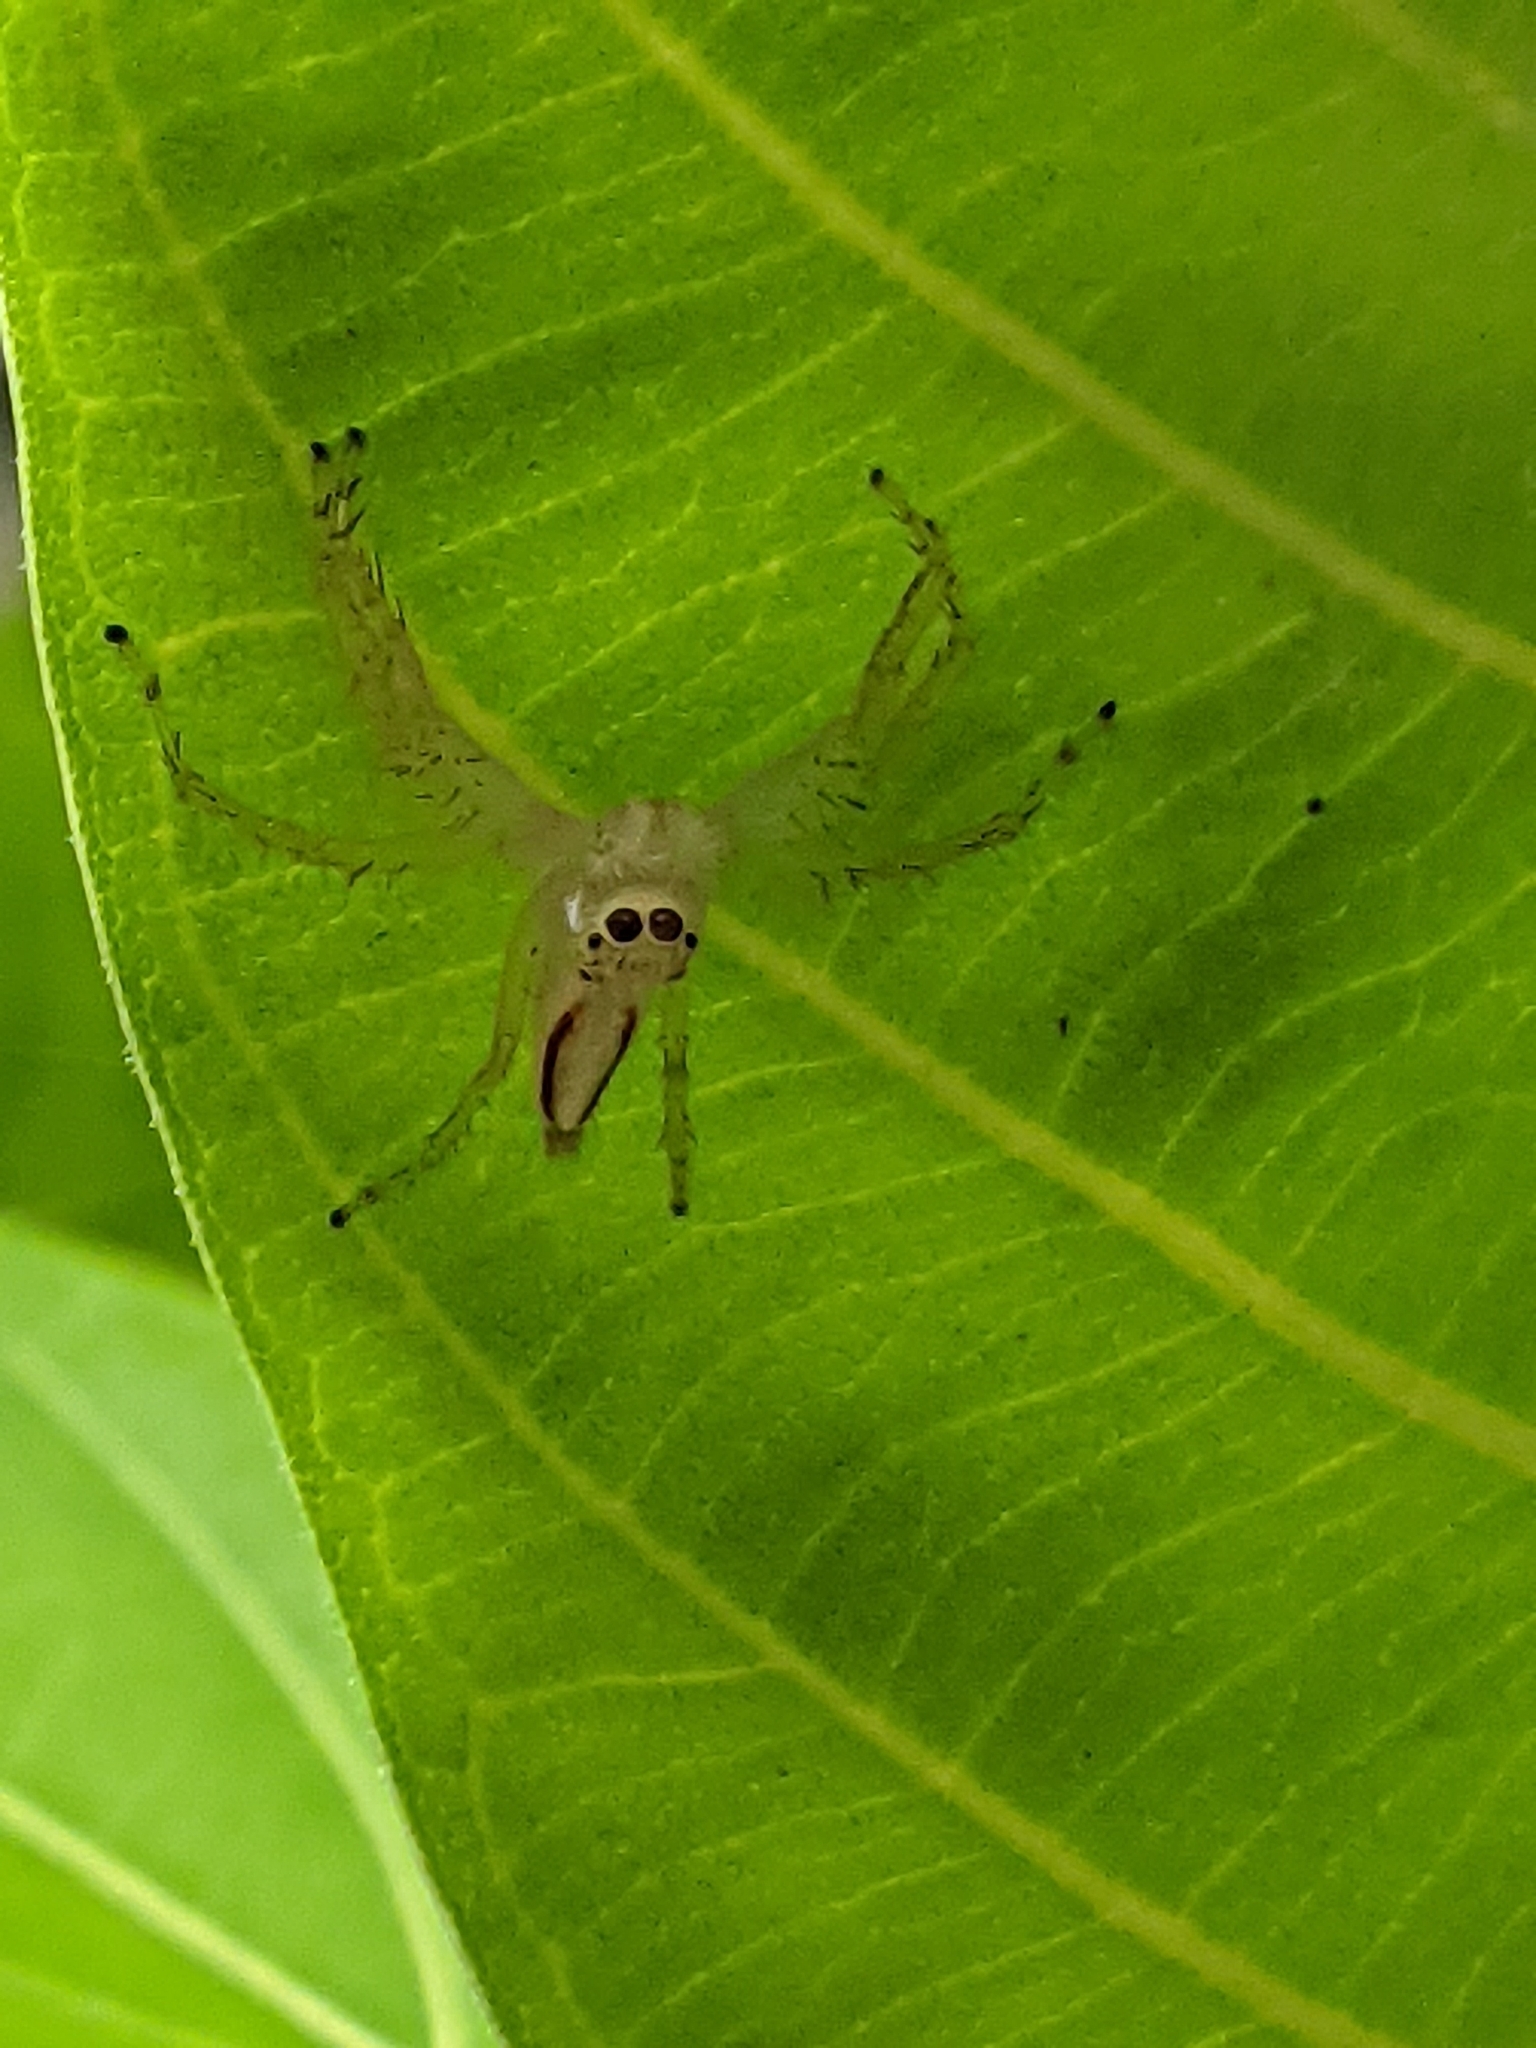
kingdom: Animalia
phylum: Arthropoda
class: Arachnida
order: Araneae
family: Salticidae
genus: Telamonia
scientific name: Telamonia dimidiata
